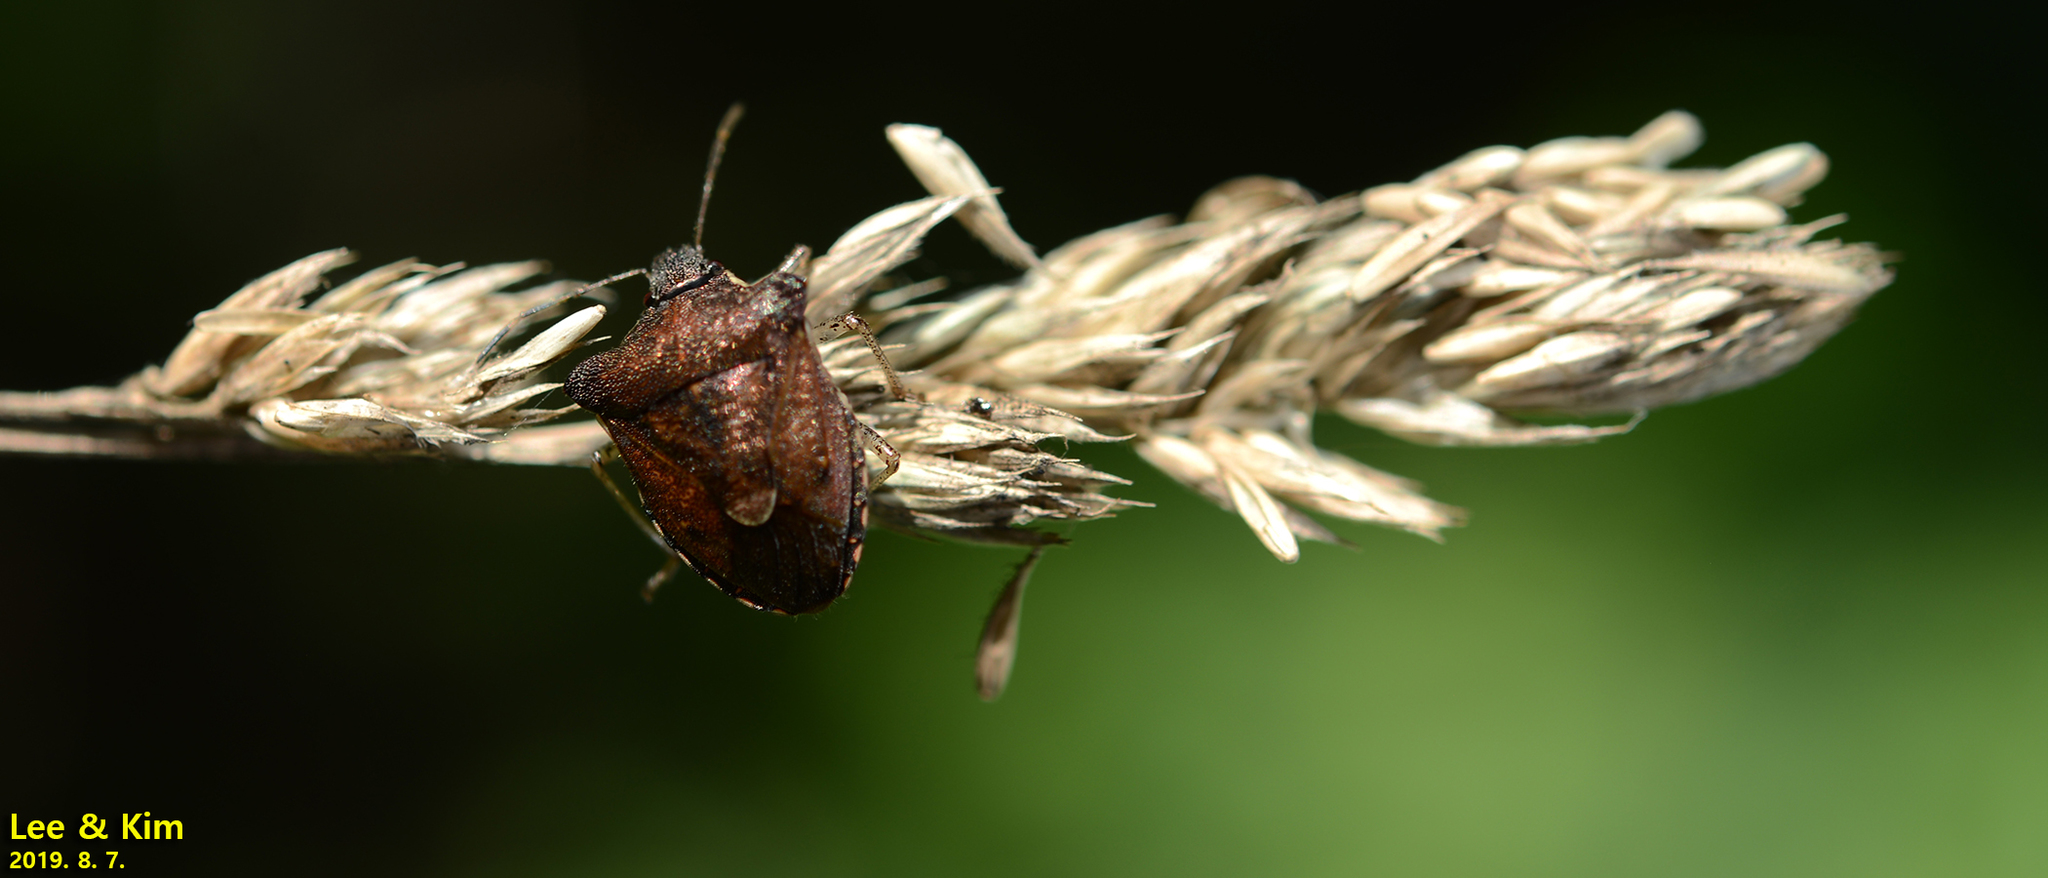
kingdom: Animalia
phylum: Arthropoda
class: Insecta
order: Hemiptera
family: Pentatomidae
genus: Carbula
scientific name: Carbula putoni
